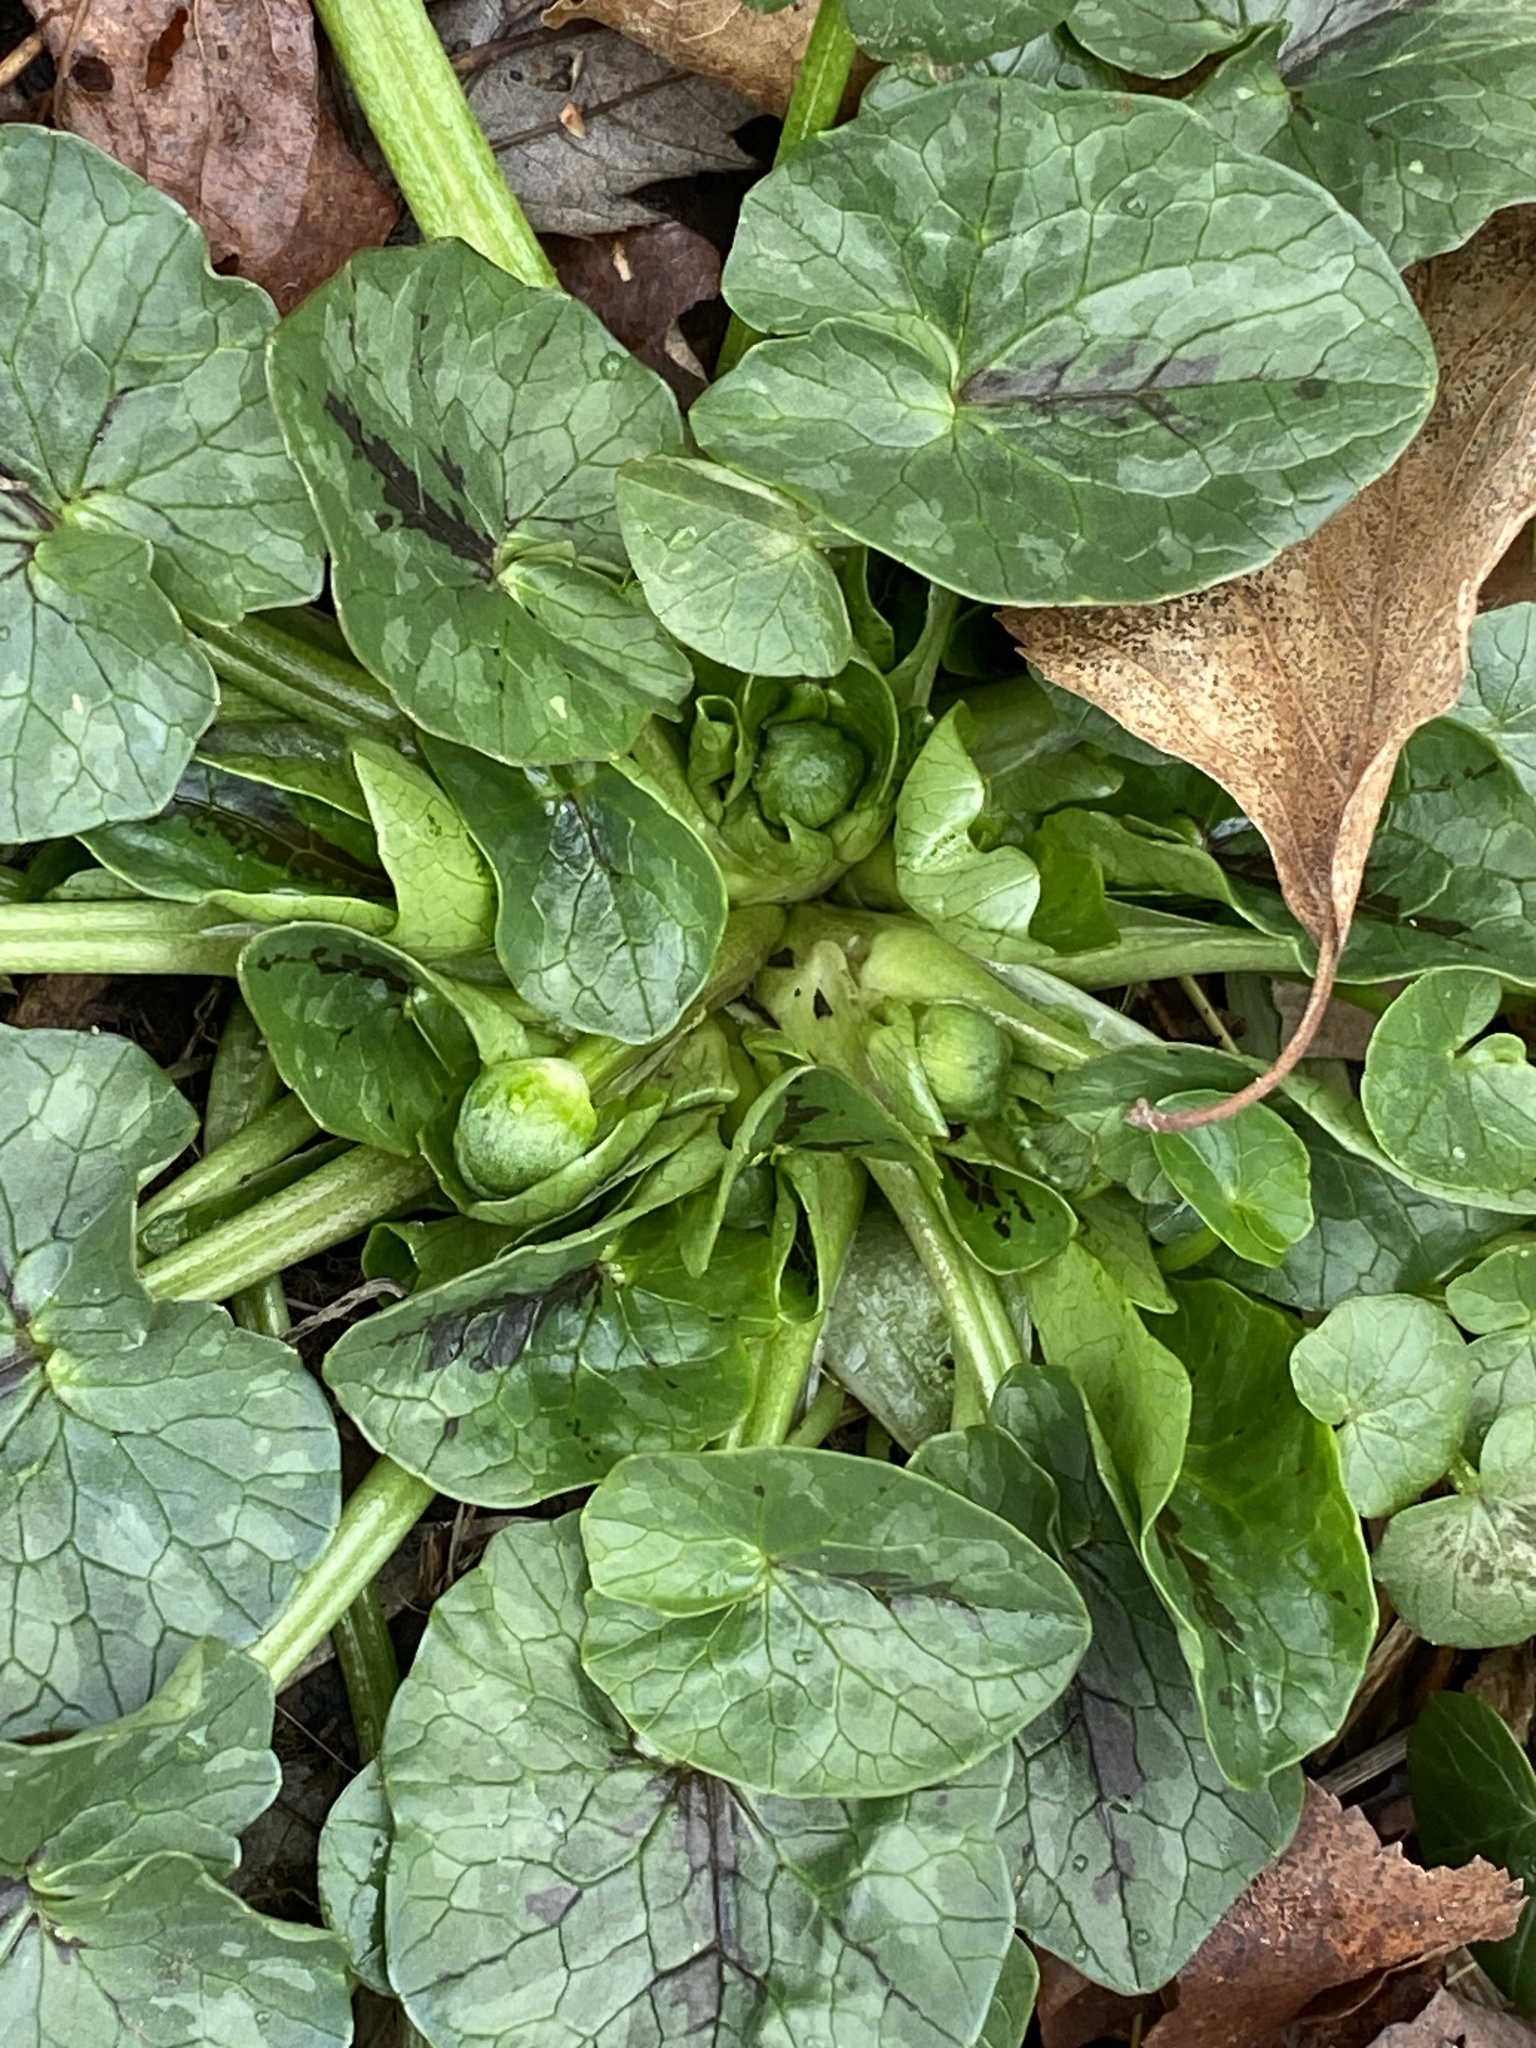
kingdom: Plantae
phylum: Tracheophyta
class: Magnoliopsida
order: Ranunculales
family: Ranunculaceae
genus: Ficaria
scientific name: Ficaria verna
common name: Lesser celandine
